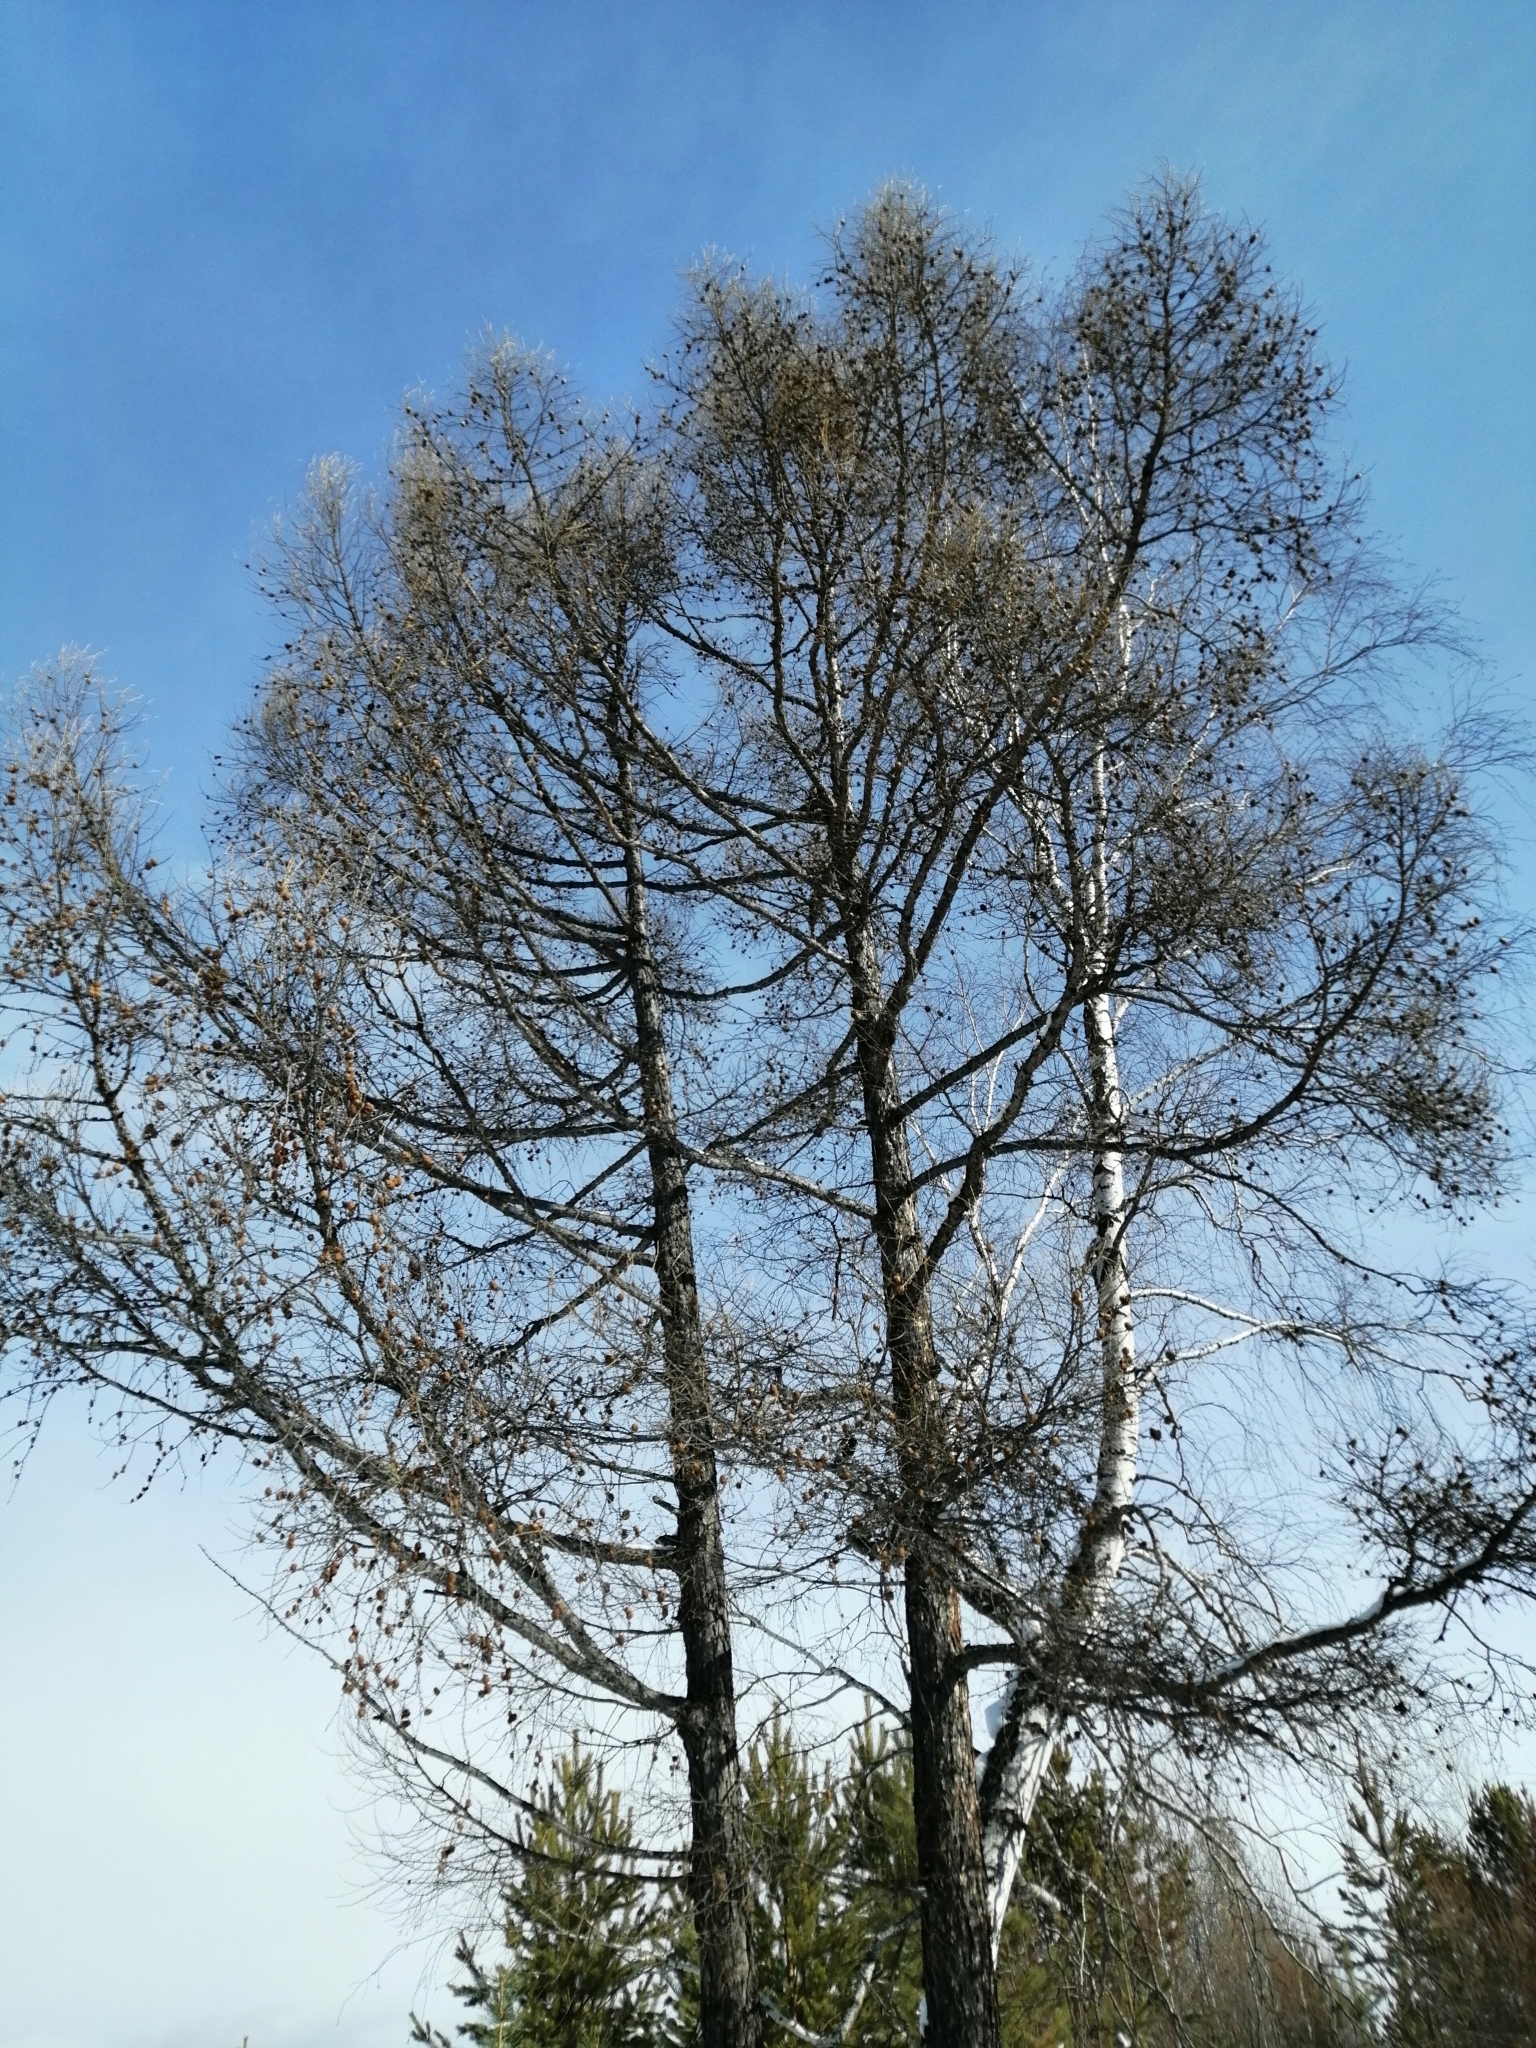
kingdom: Plantae
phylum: Tracheophyta
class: Pinopsida
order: Pinales
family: Pinaceae
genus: Larix
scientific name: Larix sibirica
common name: Siberian larch
